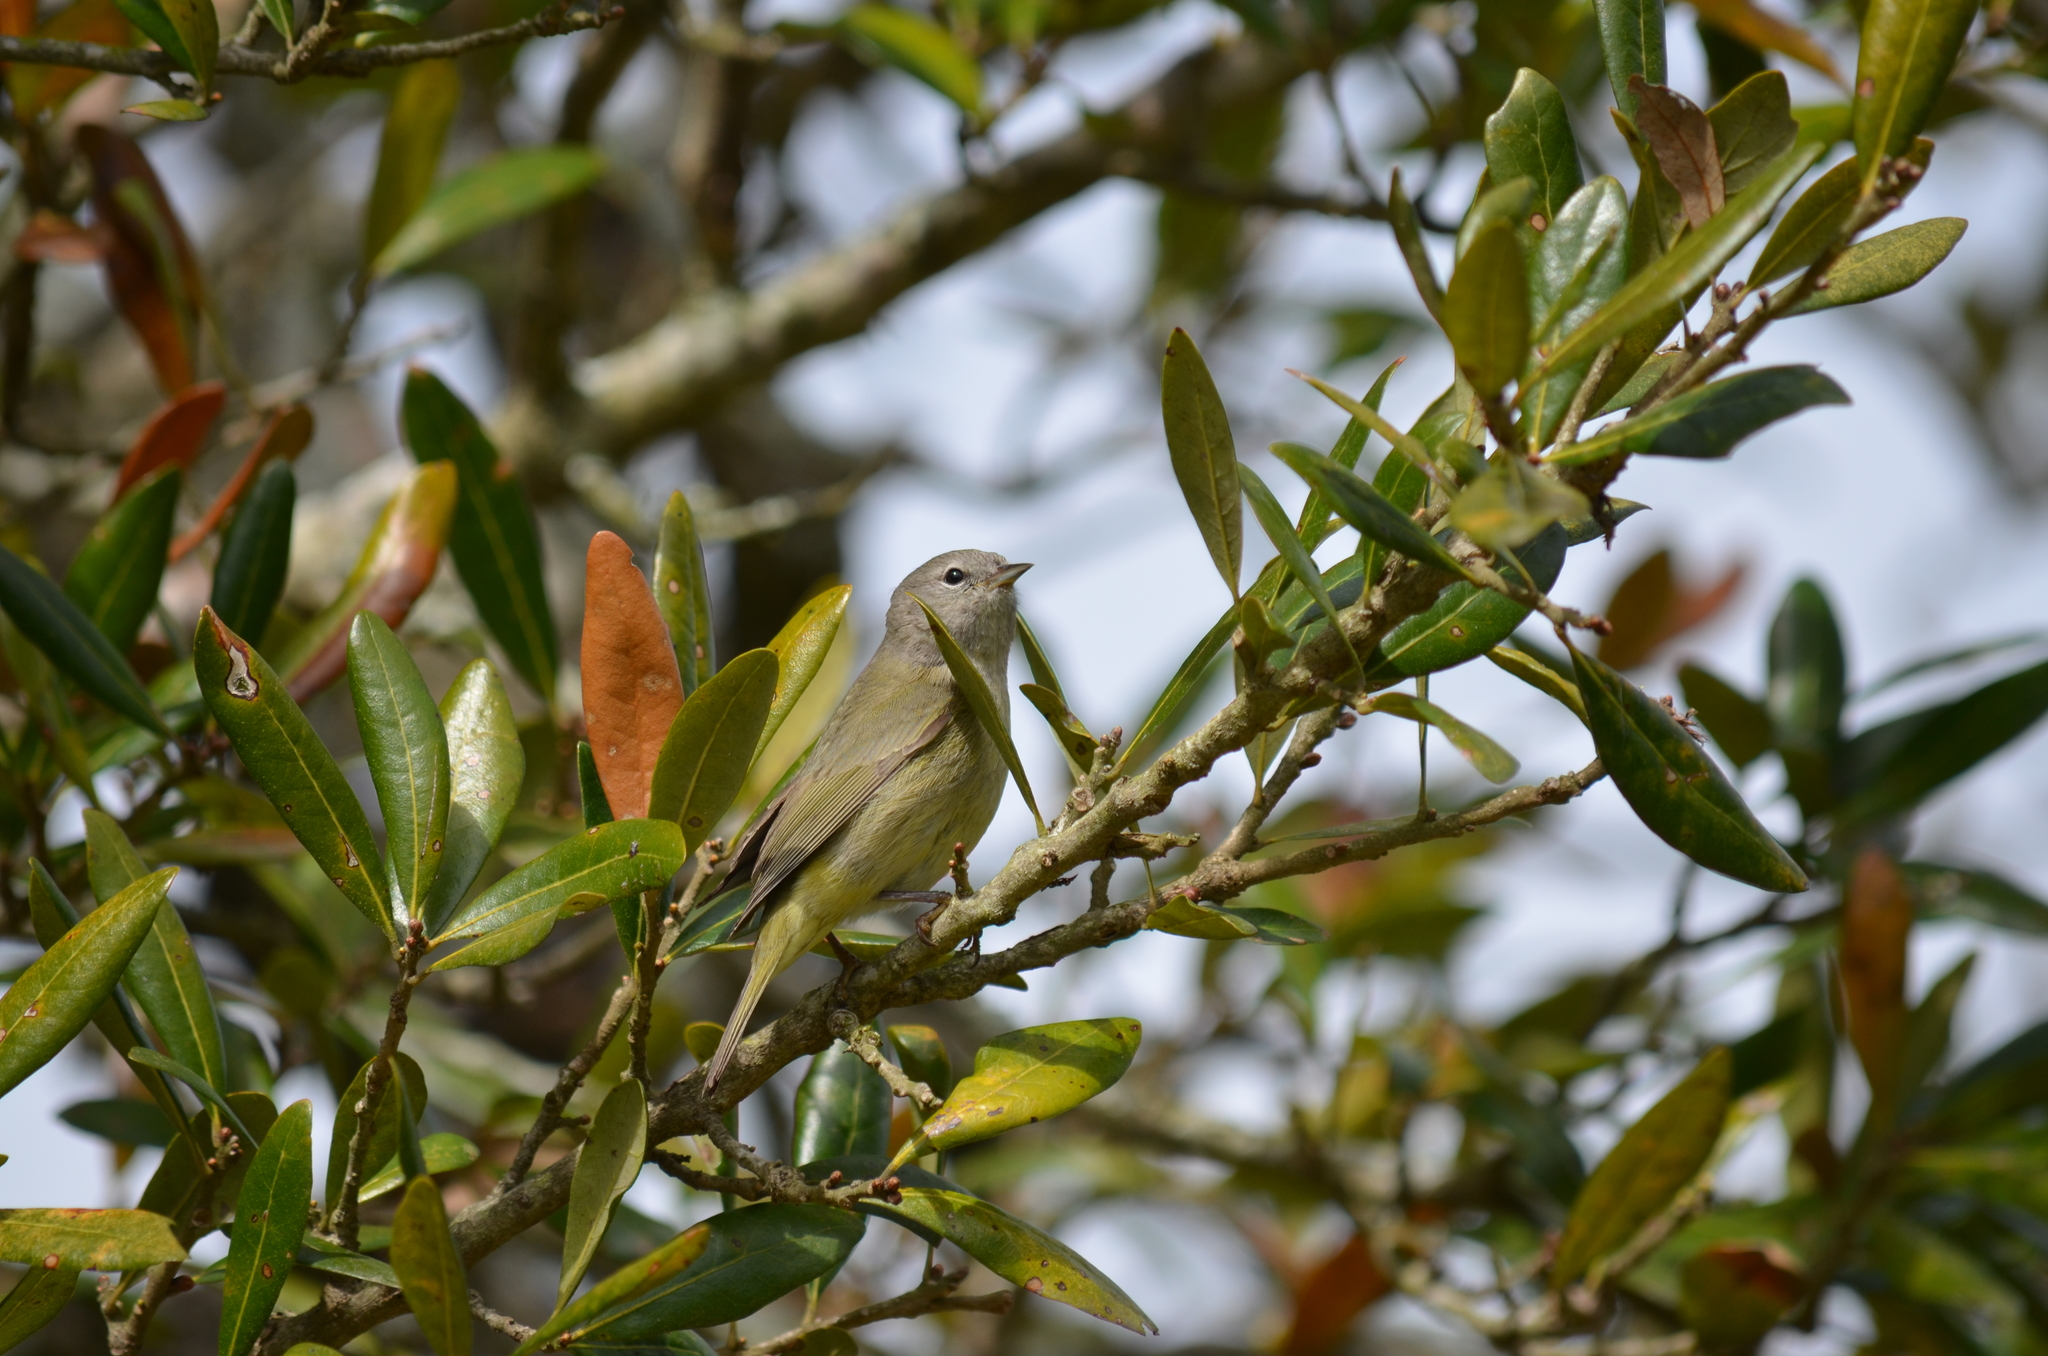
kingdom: Animalia
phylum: Chordata
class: Aves
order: Passeriformes
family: Parulidae
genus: Leiothlypis
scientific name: Leiothlypis celata
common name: Orange-crowned warbler
